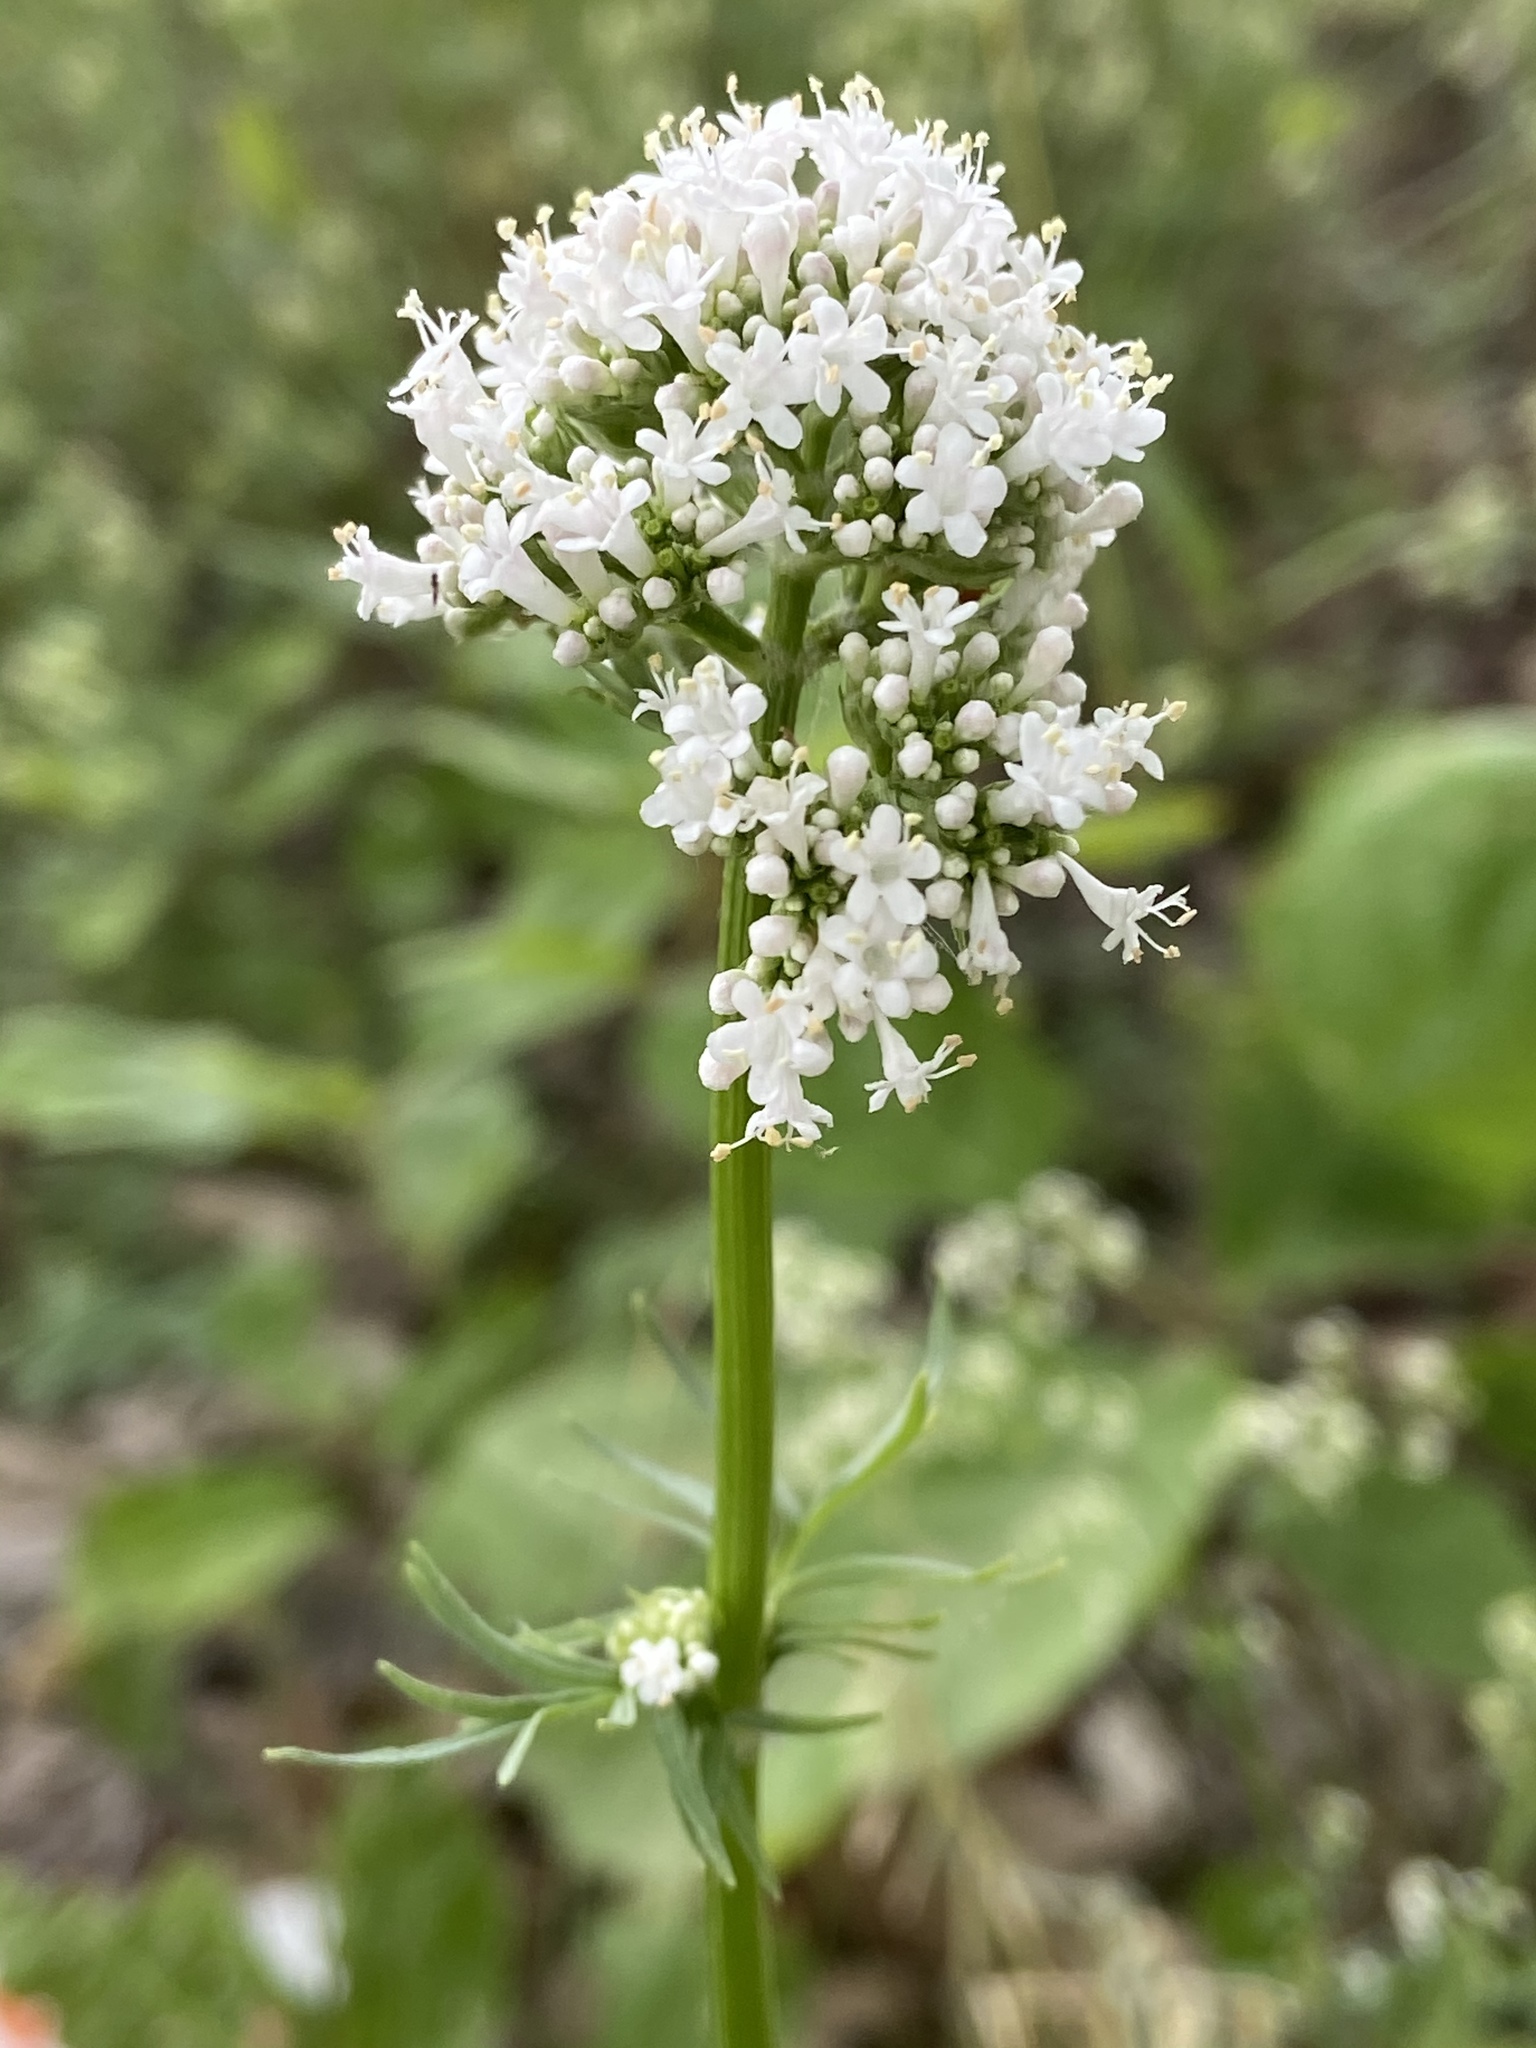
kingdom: Plantae
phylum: Tracheophyta
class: Magnoliopsida
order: Dipsacales
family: Caprifoliaceae
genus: Valeriana
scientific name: Valeriana officinalis
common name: Common valerian
